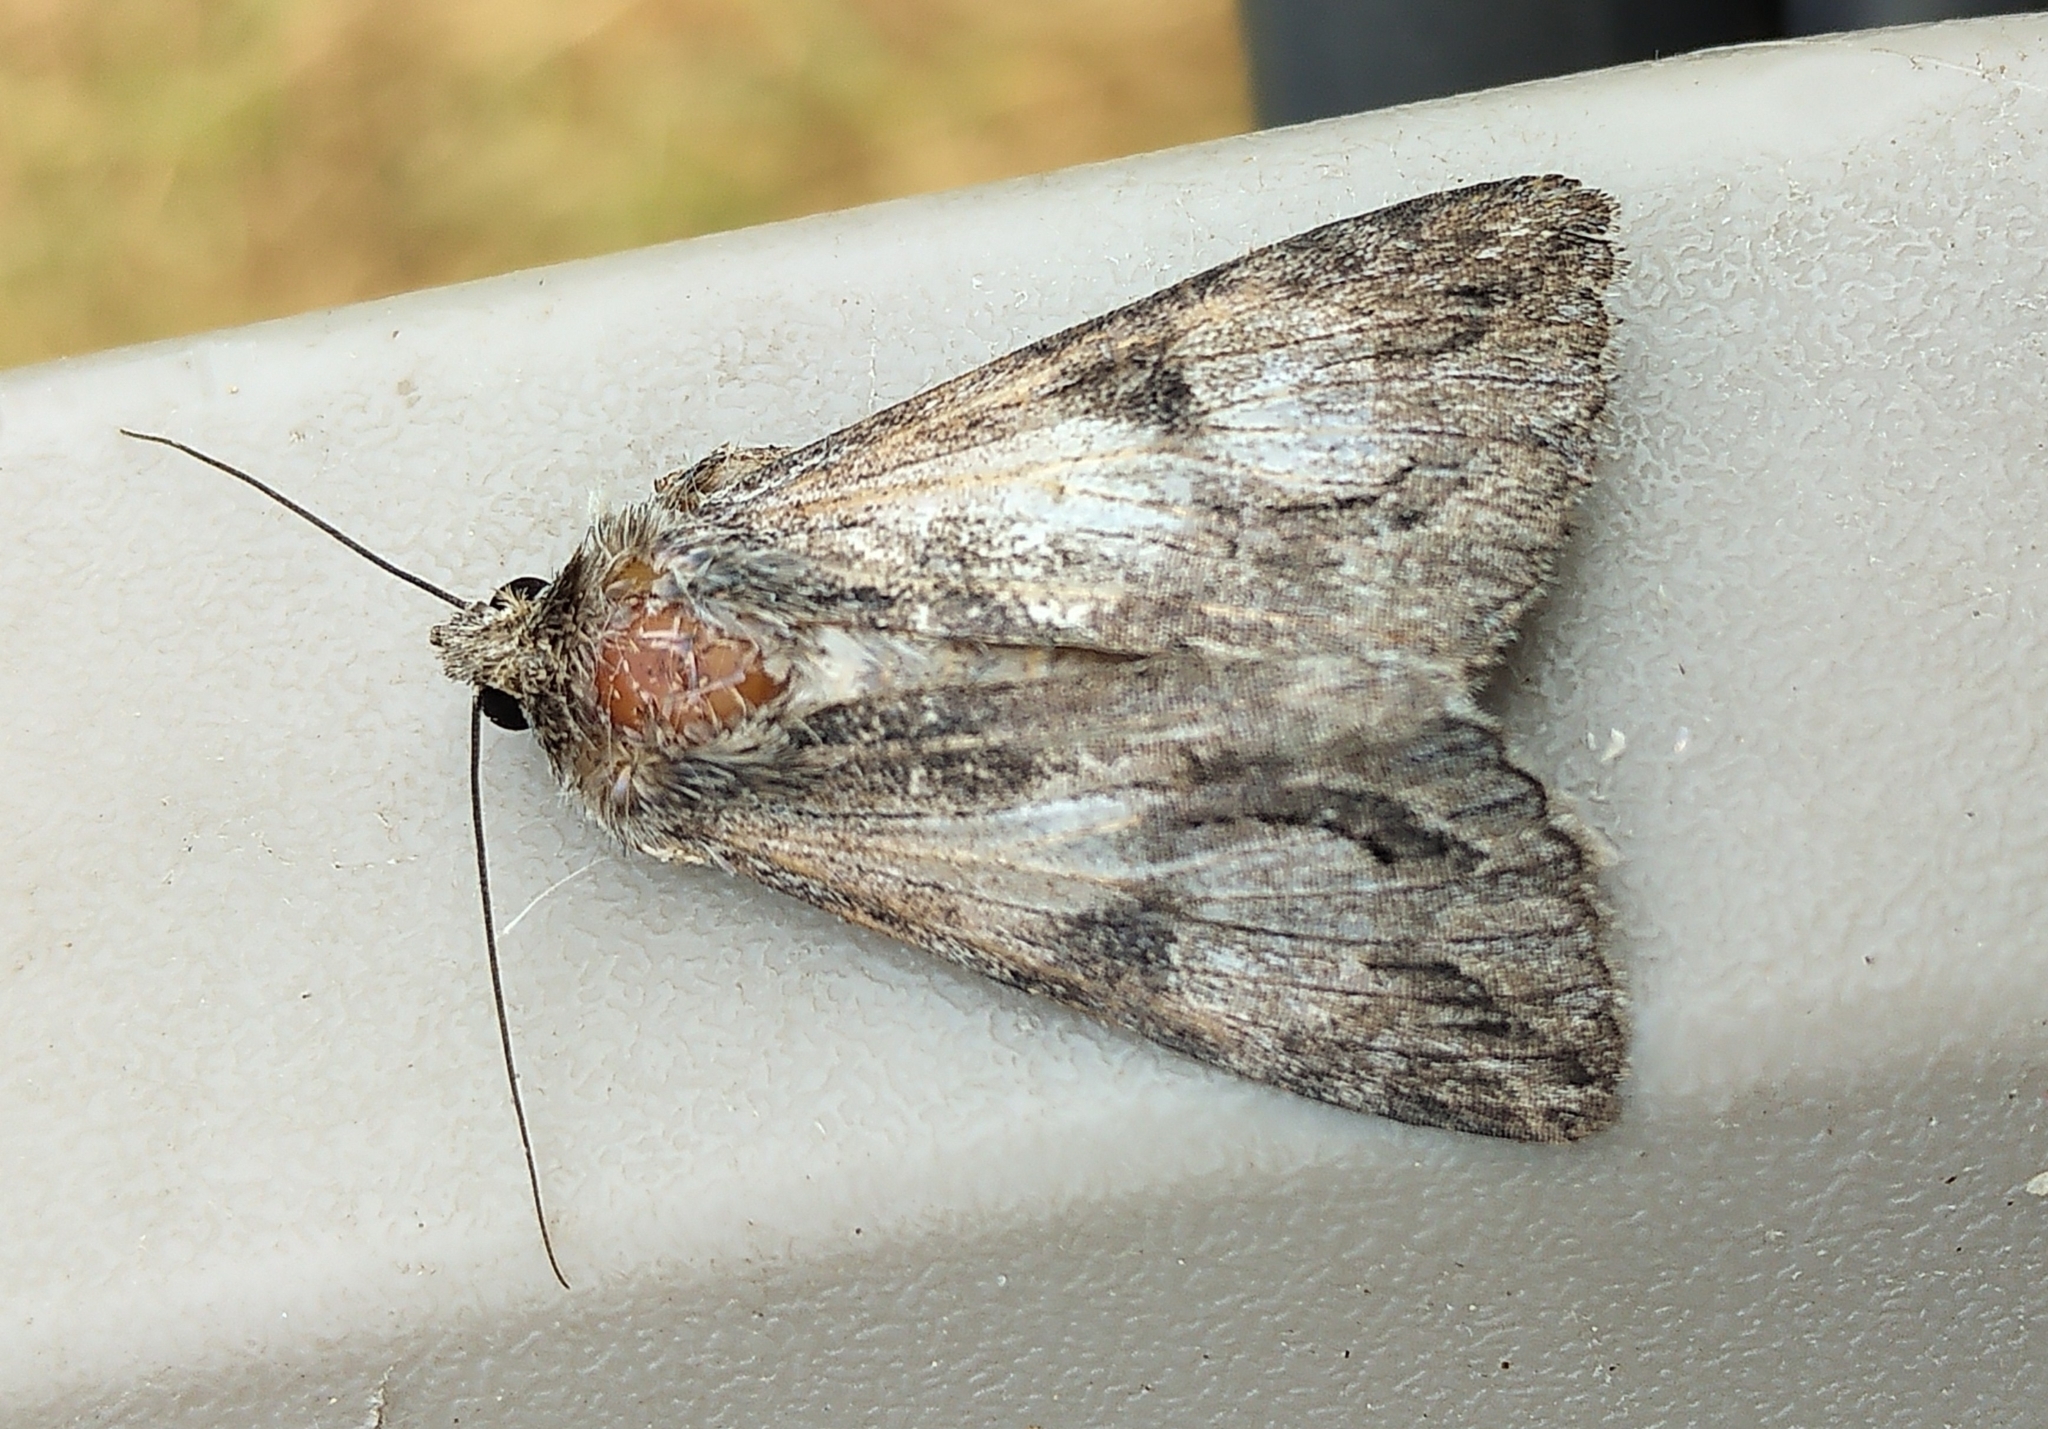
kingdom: Animalia
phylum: Arthropoda
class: Insecta
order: Lepidoptera
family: Erebidae
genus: Melipotis
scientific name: Melipotis jucunda
